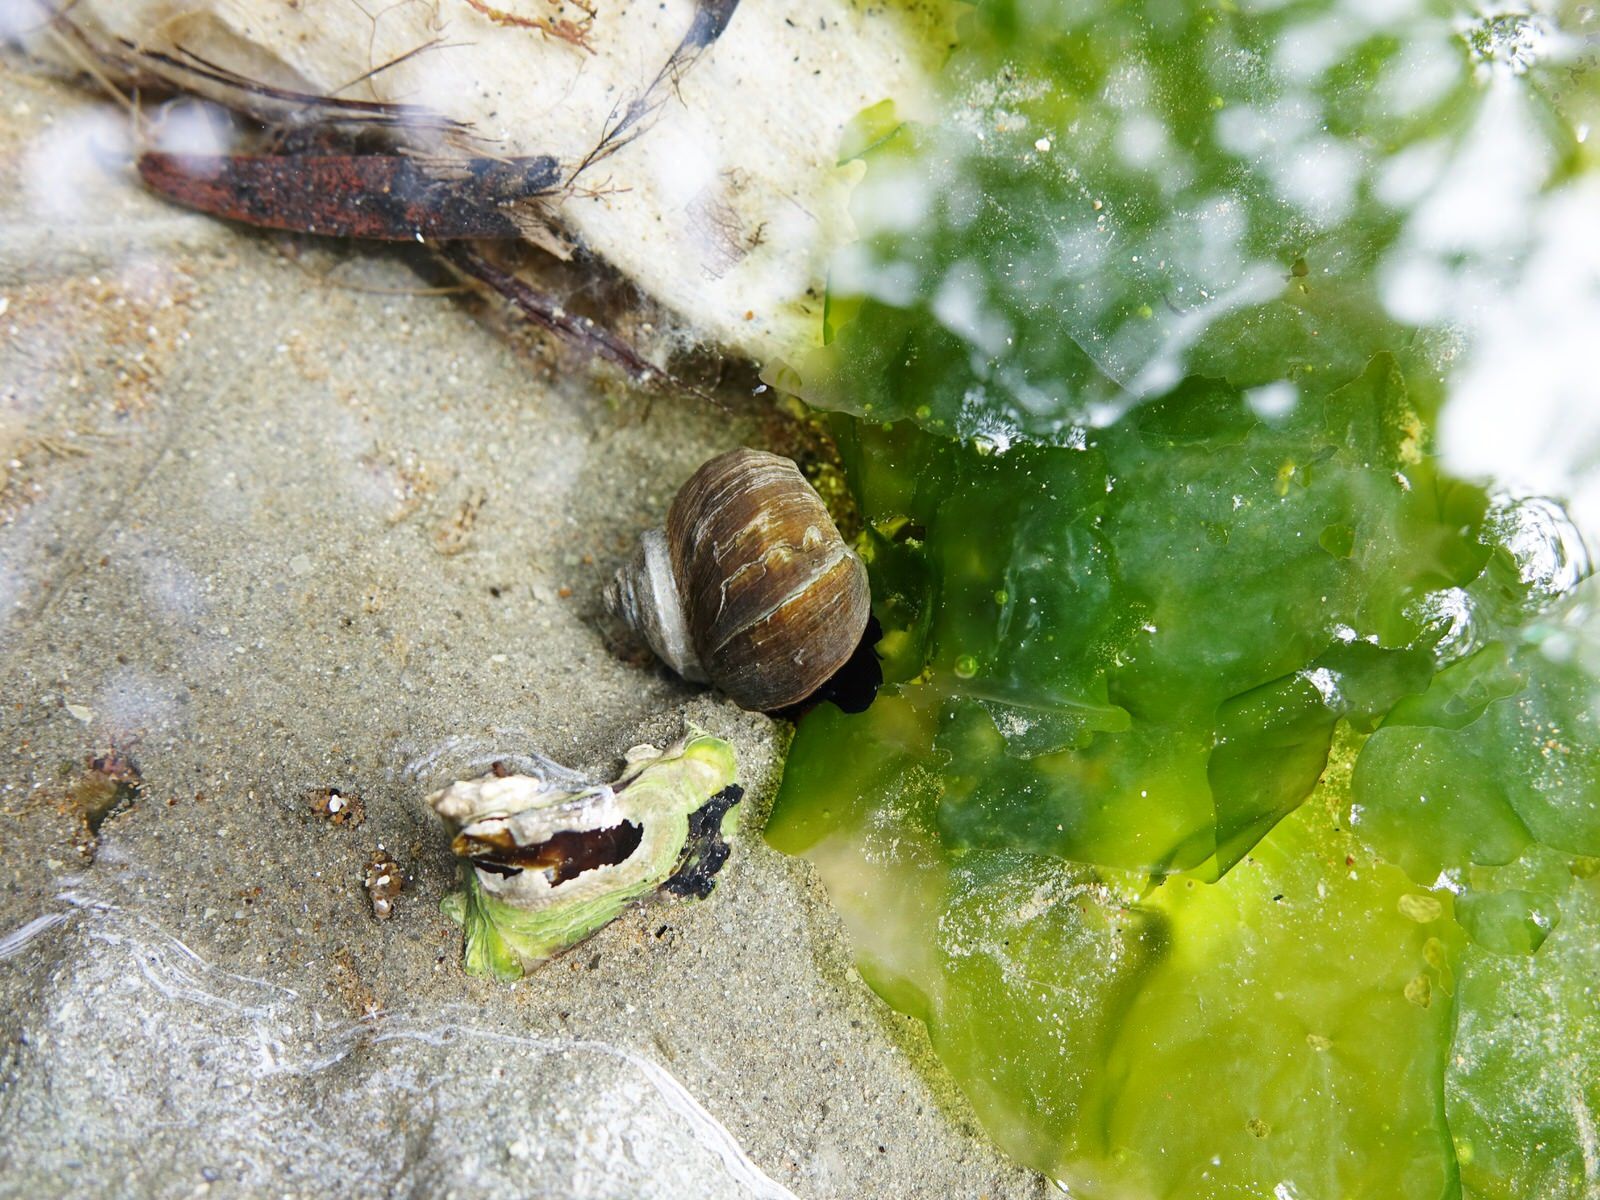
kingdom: Animalia
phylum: Mollusca
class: Gastropoda
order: Trochida
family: Turbinidae
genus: Lunella
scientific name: Lunella smaragda
